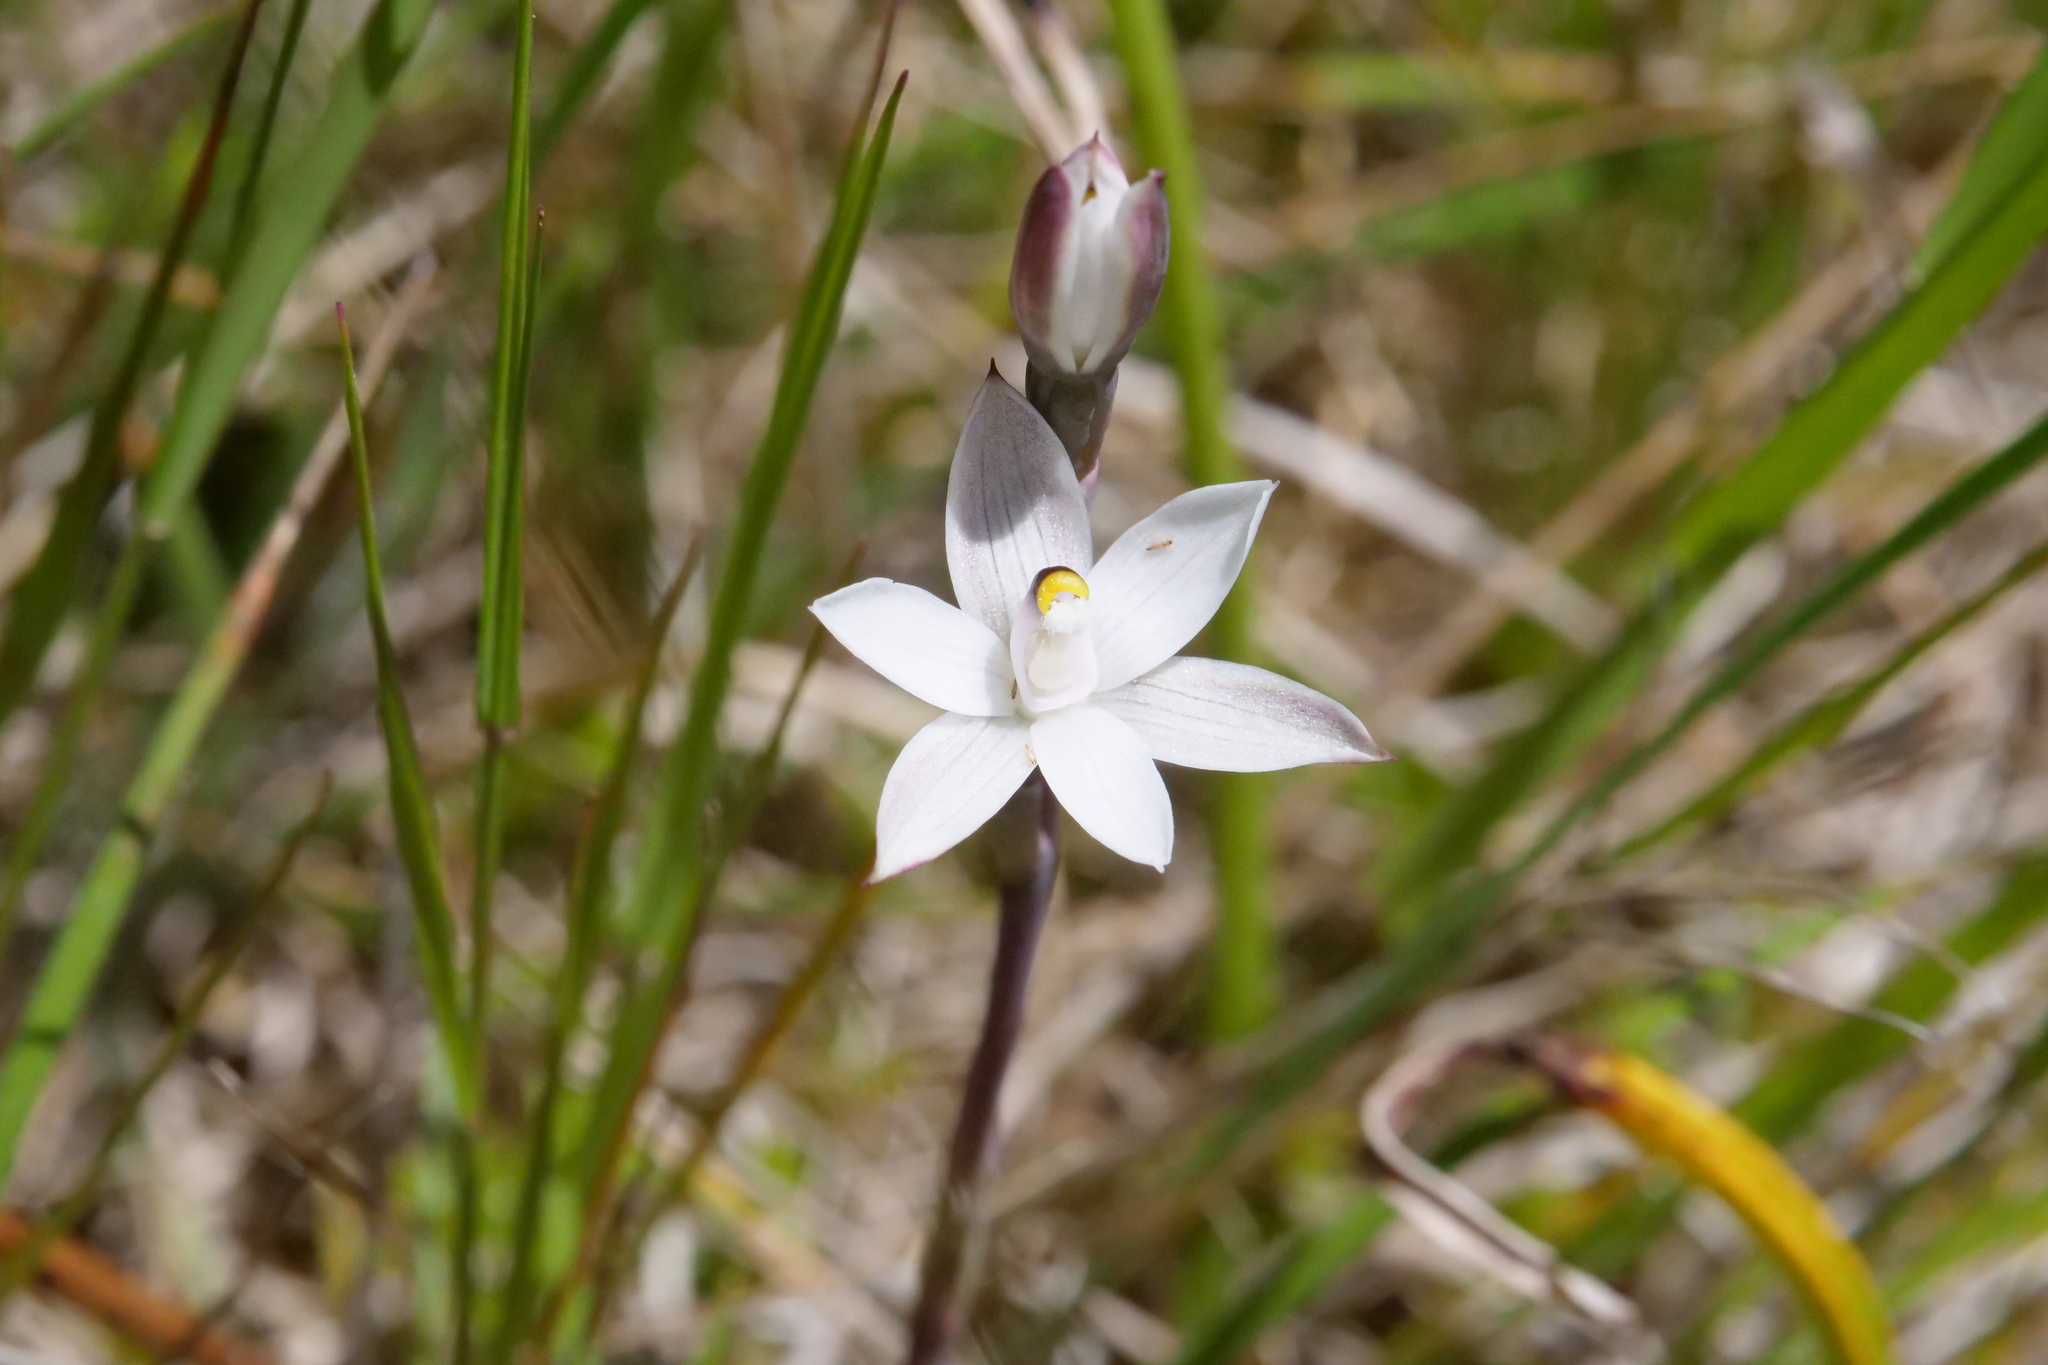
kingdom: Plantae
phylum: Tracheophyta
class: Liliopsida
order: Asparagales
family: Orchidaceae
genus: Thelymitra
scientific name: Thelymitra longifolia
